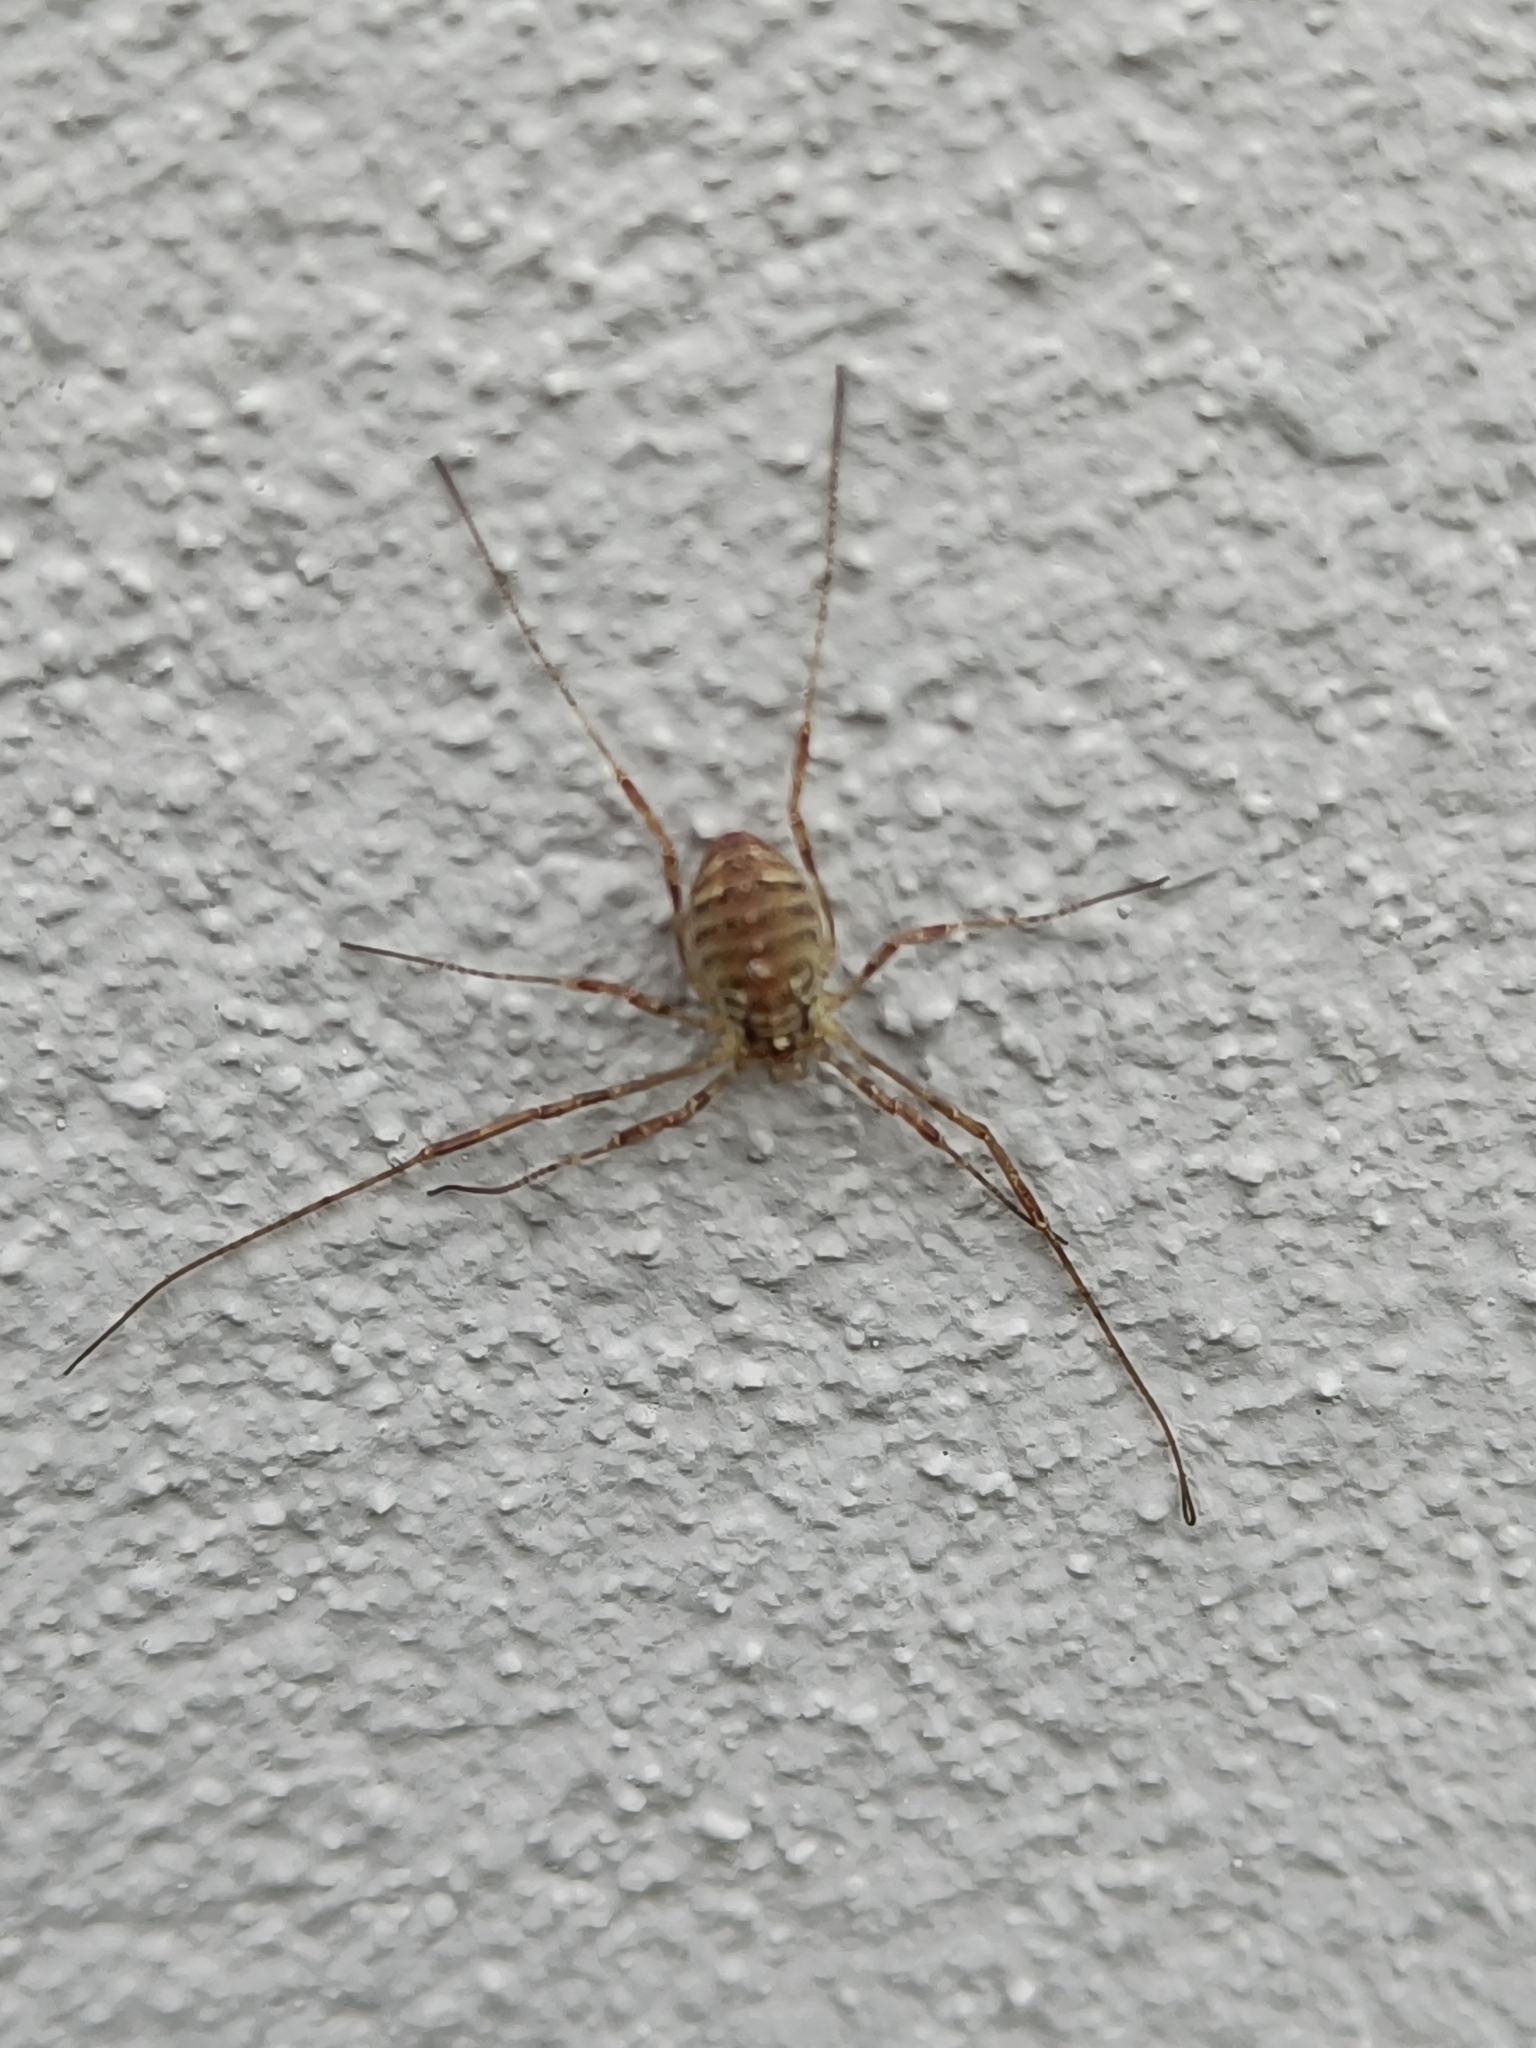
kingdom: Animalia
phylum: Arthropoda
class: Arachnida
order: Opiliones
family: Phalangiidae
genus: Paroligolophus
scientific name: Paroligolophus agrestis
